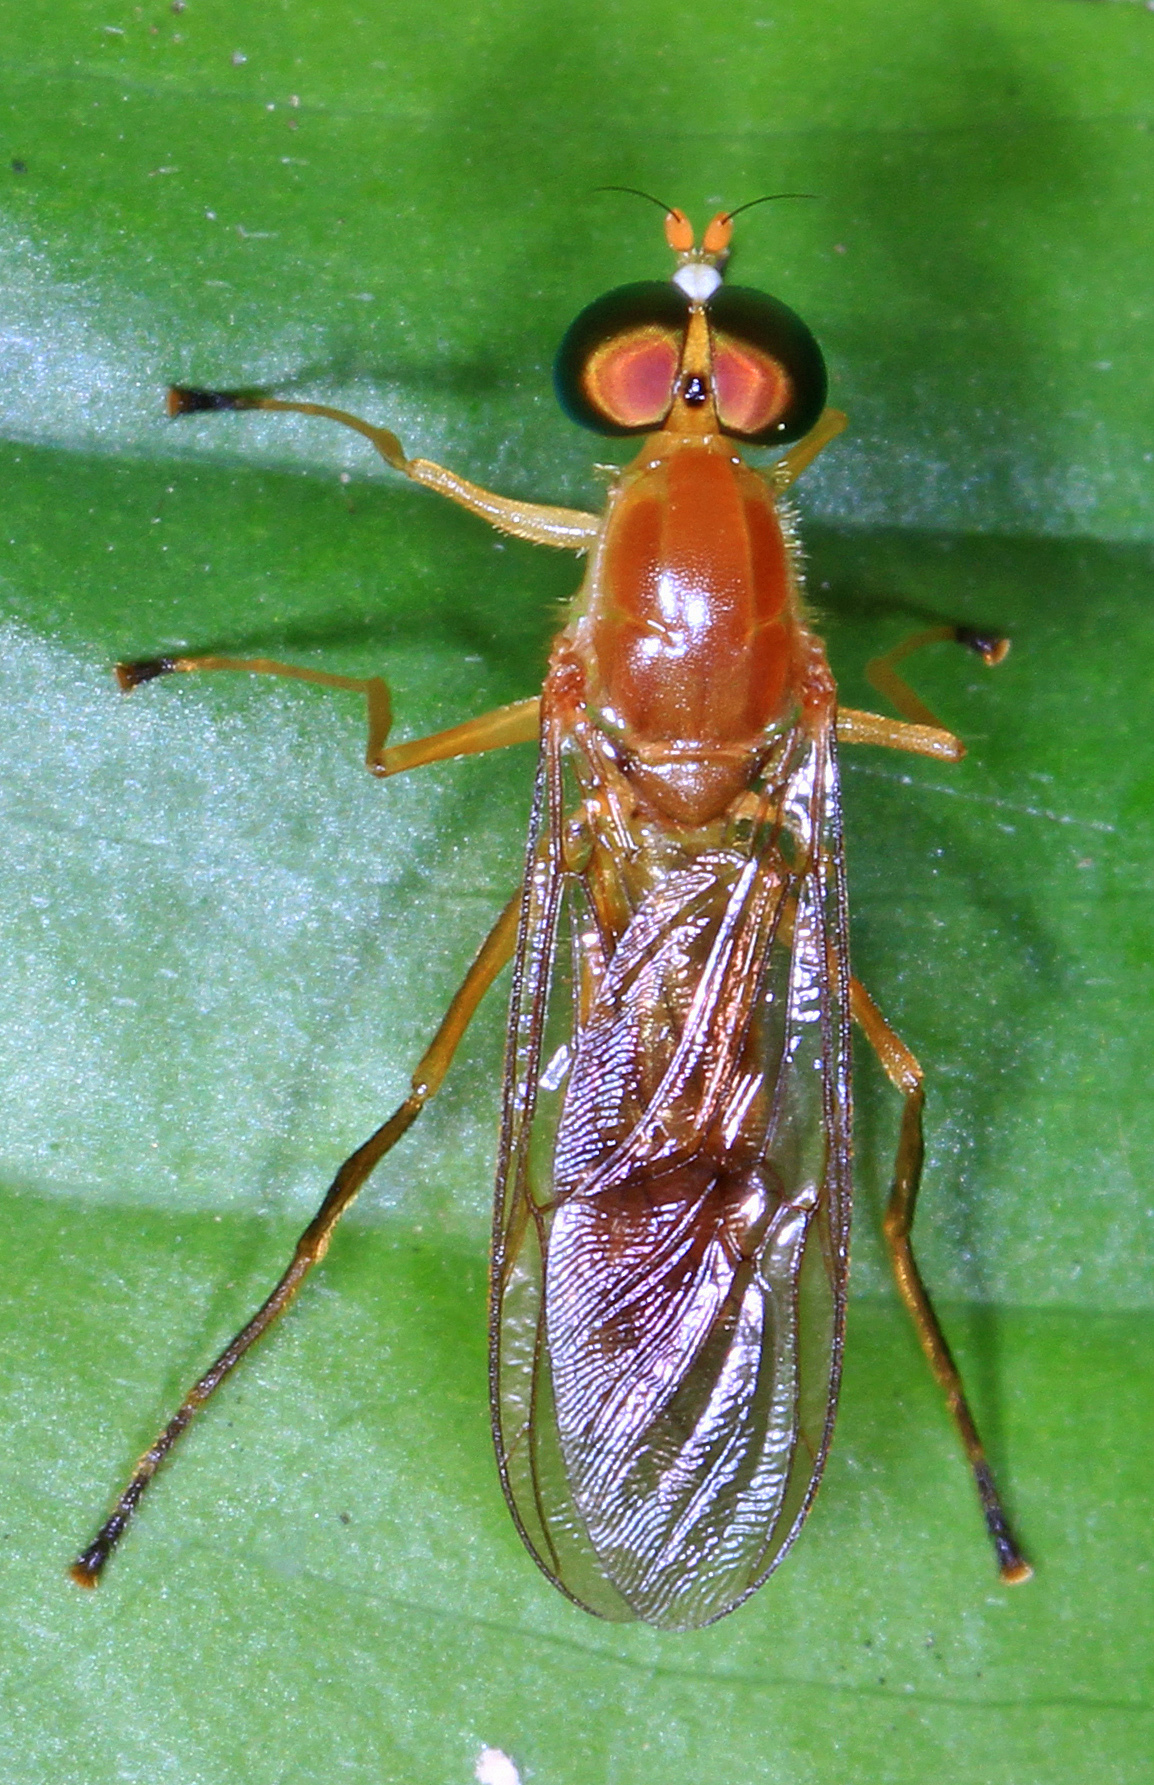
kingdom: Animalia
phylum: Arthropoda
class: Insecta
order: Diptera
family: Stratiomyidae
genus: Ptecticus
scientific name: Ptecticus trivittatus
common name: Compost fly
